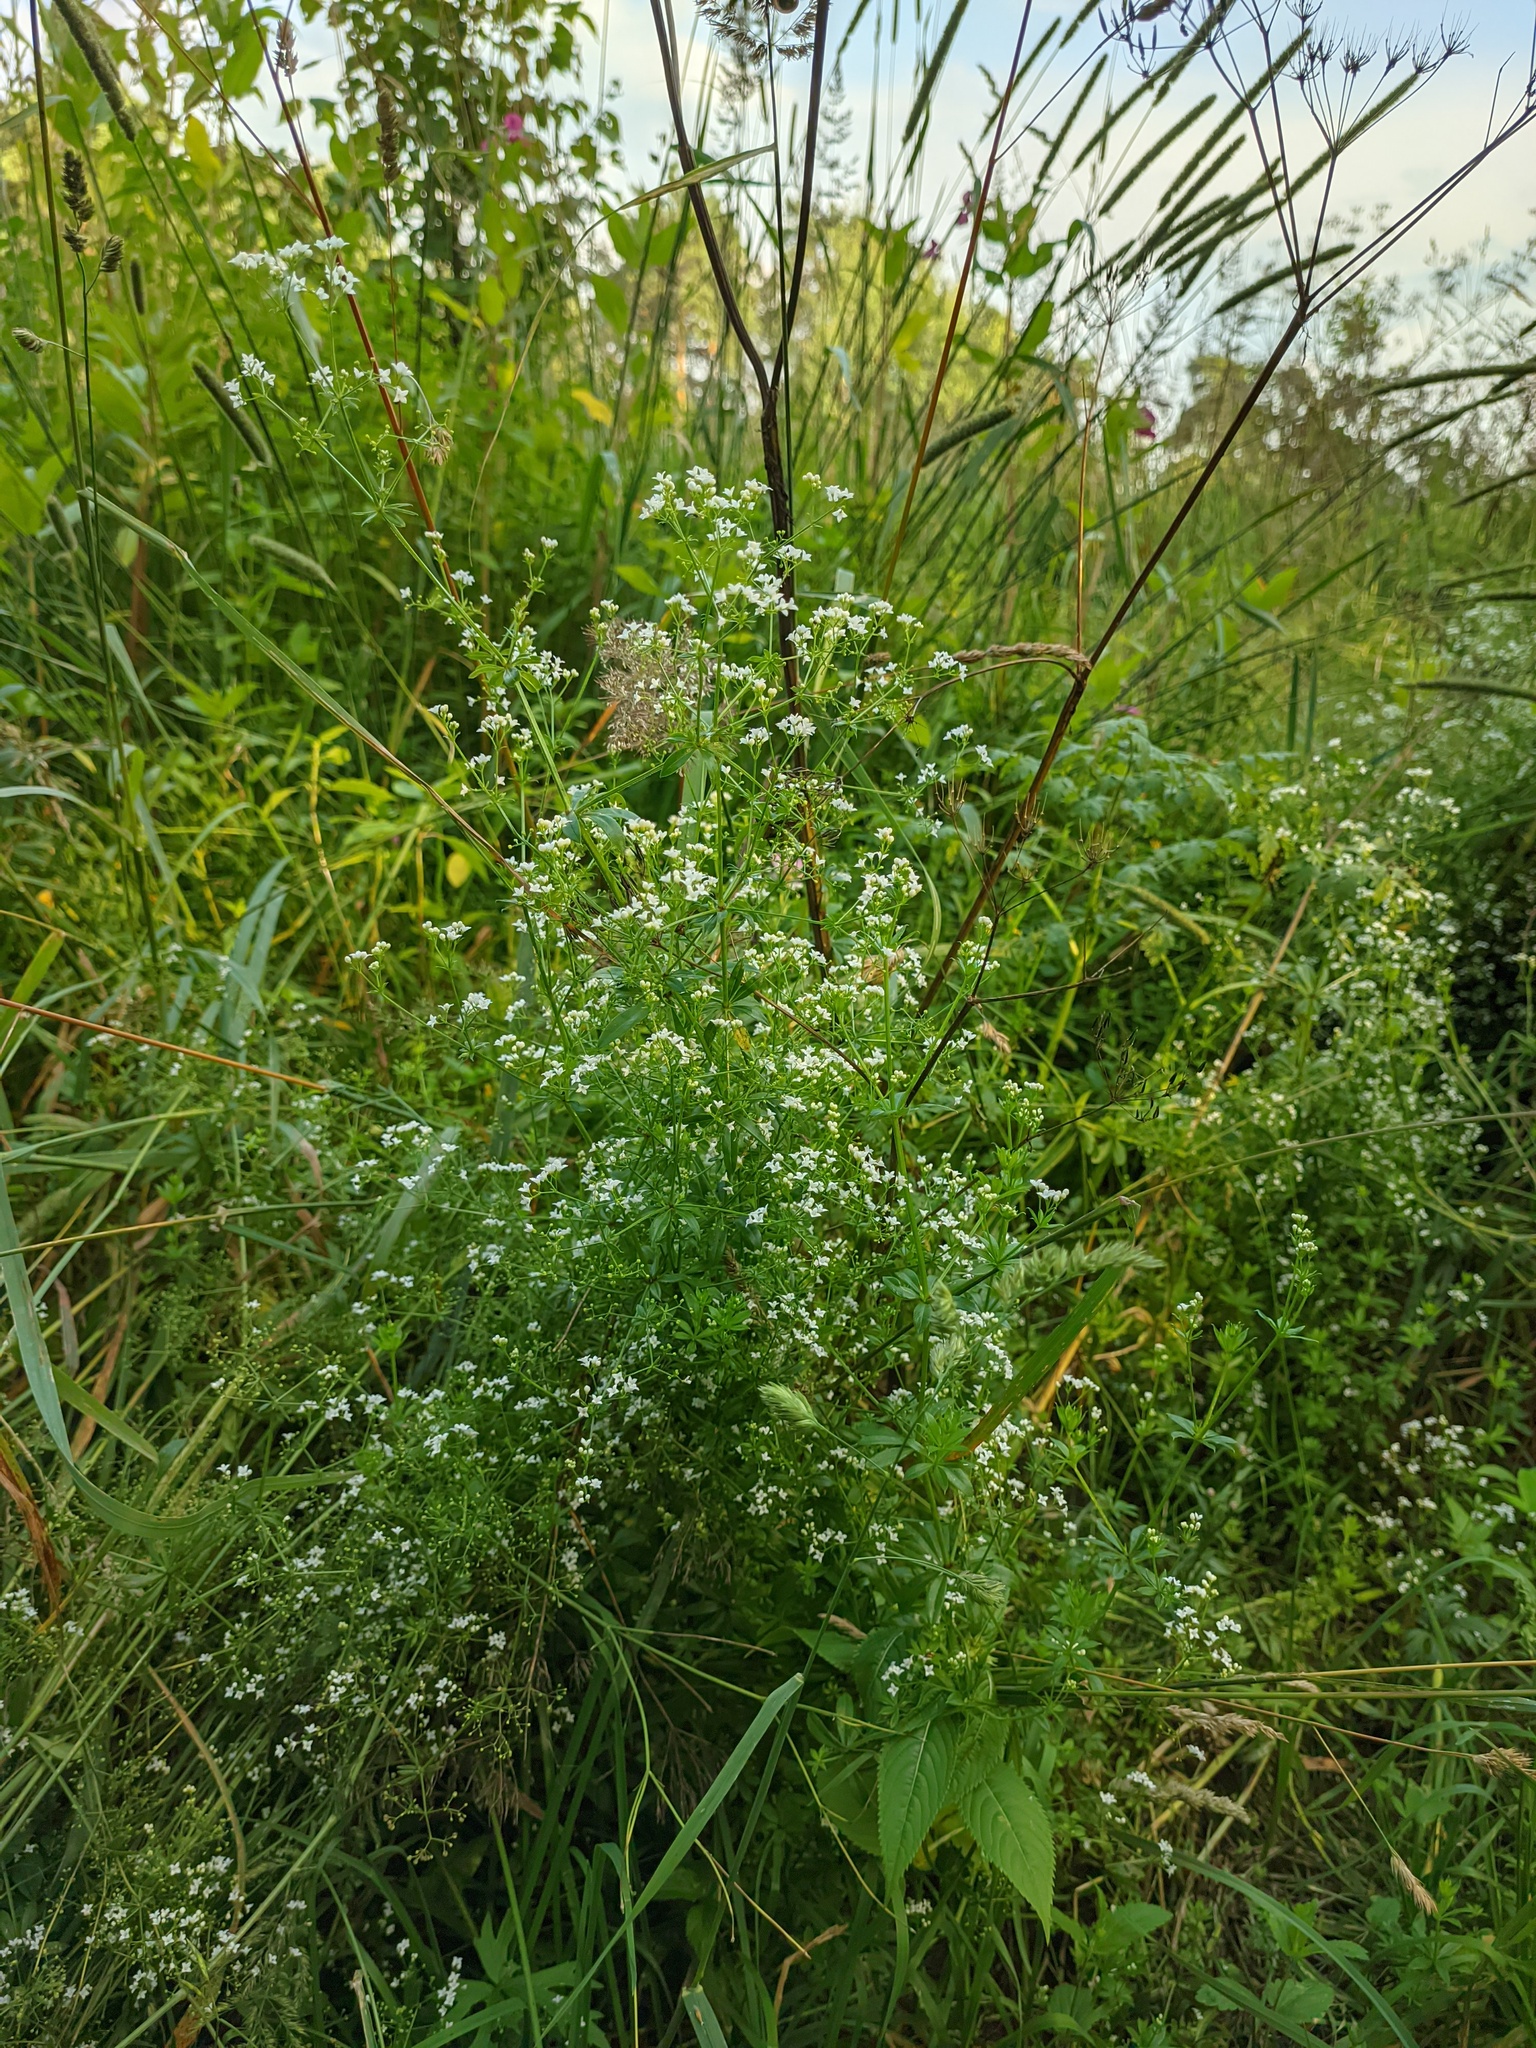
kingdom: Plantae
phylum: Tracheophyta
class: Magnoliopsida
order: Gentianales
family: Rubiaceae
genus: Galium
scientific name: Galium rivale
